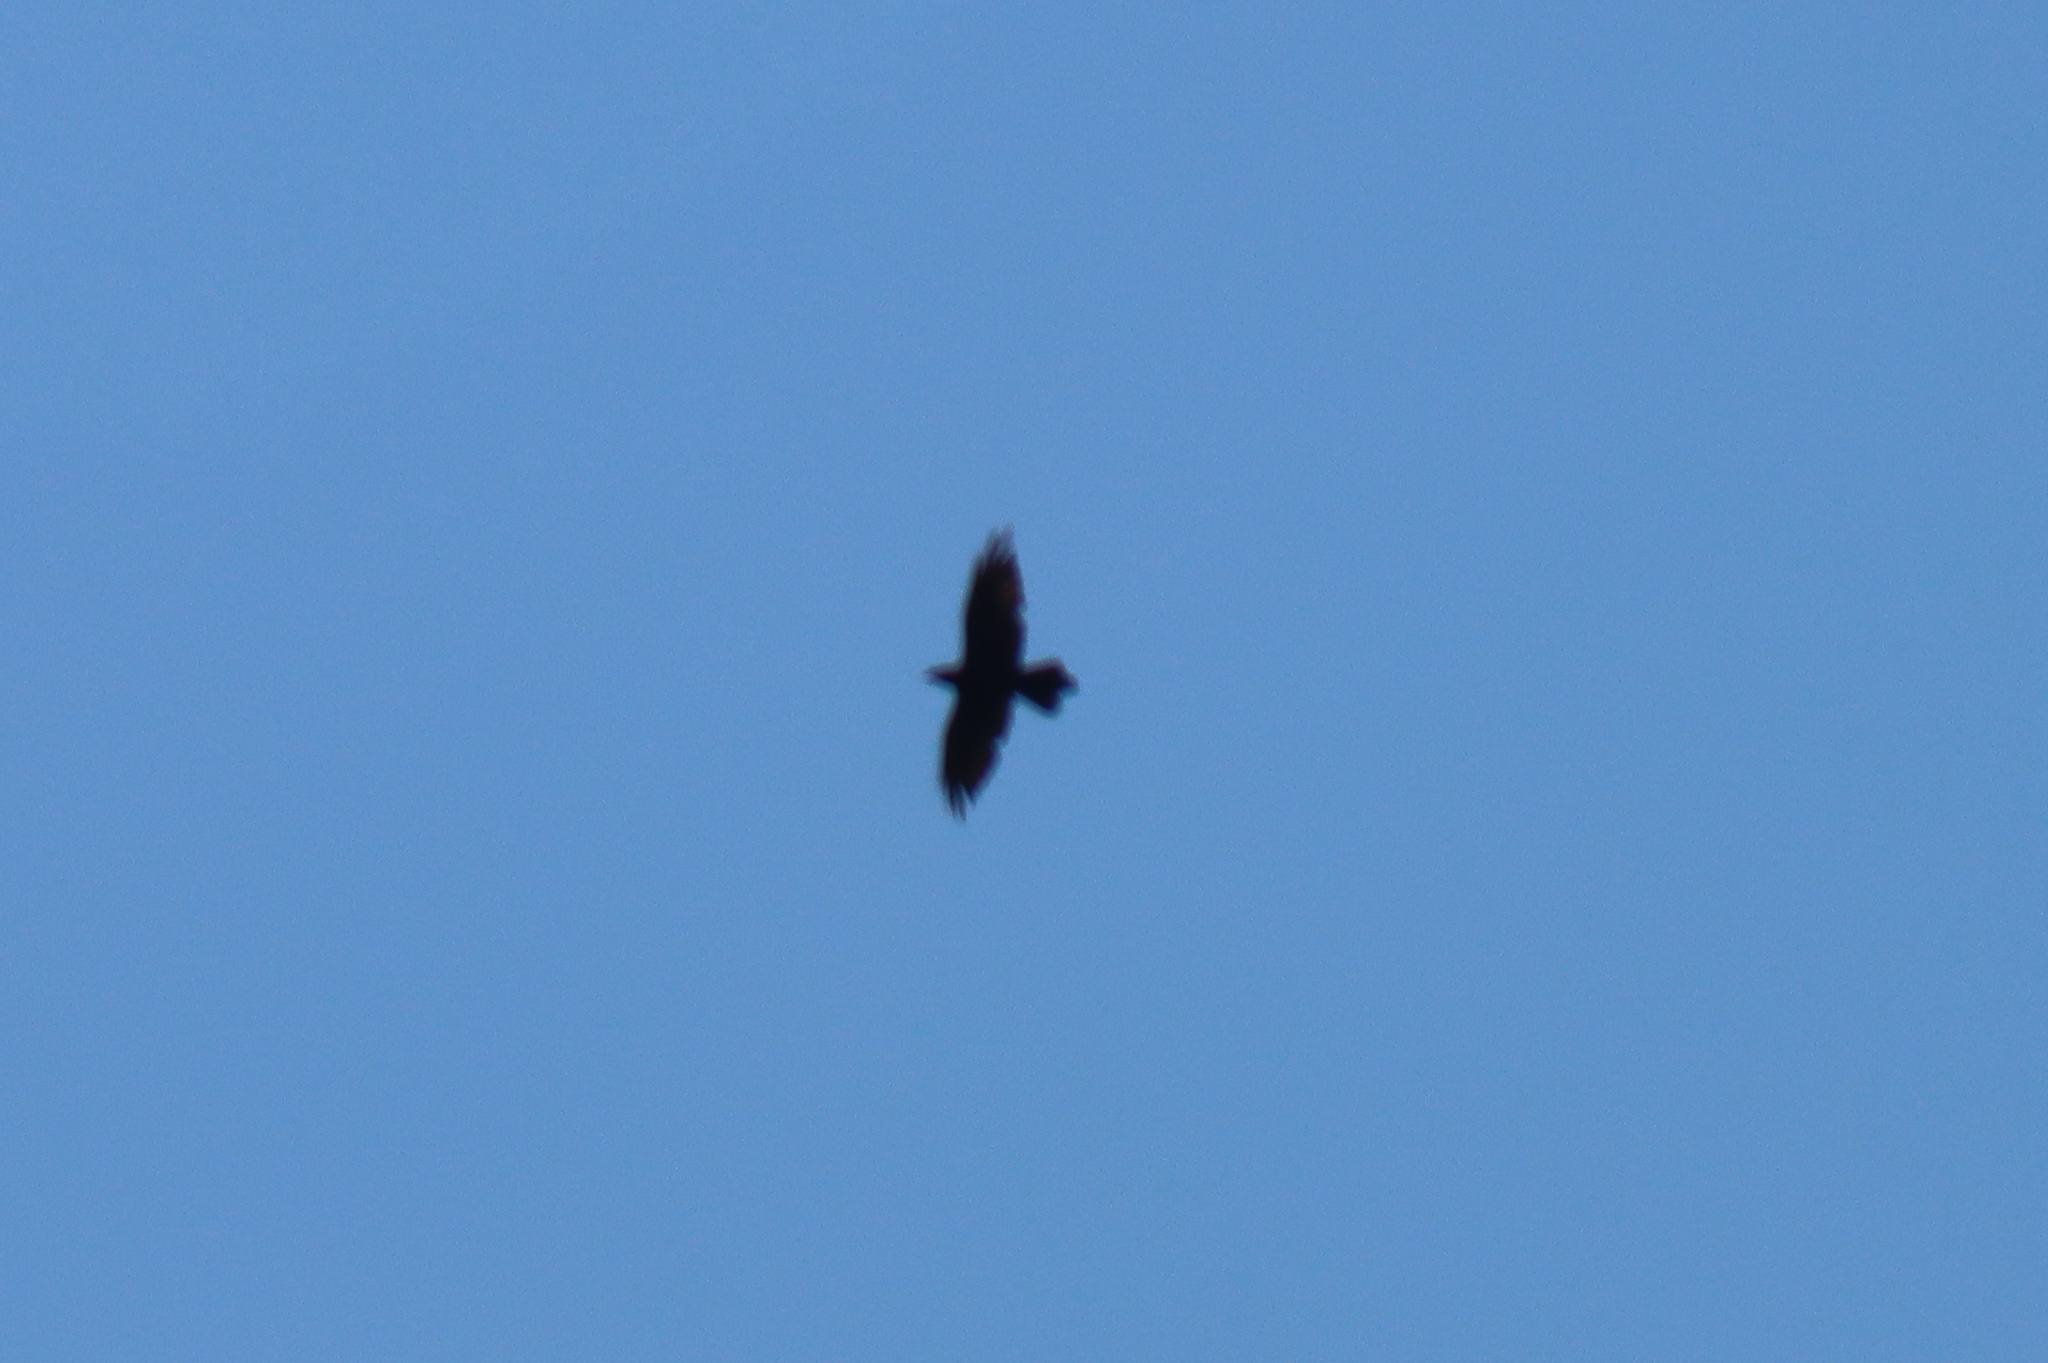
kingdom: Animalia
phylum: Chordata
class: Aves
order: Passeriformes
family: Corvidae
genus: Corvus
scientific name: Corvus corax
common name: Common raven
